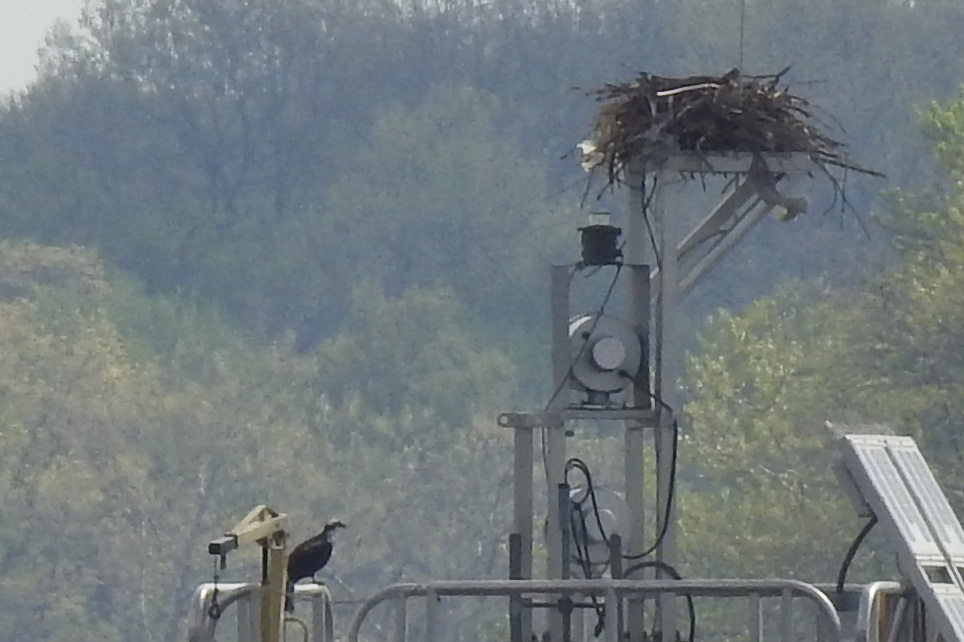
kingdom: Animalia
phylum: Chordata
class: Aves
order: Accipitriformes
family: Pandionidae
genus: Pandion
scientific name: Pandion haliaetus
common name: Osprey
